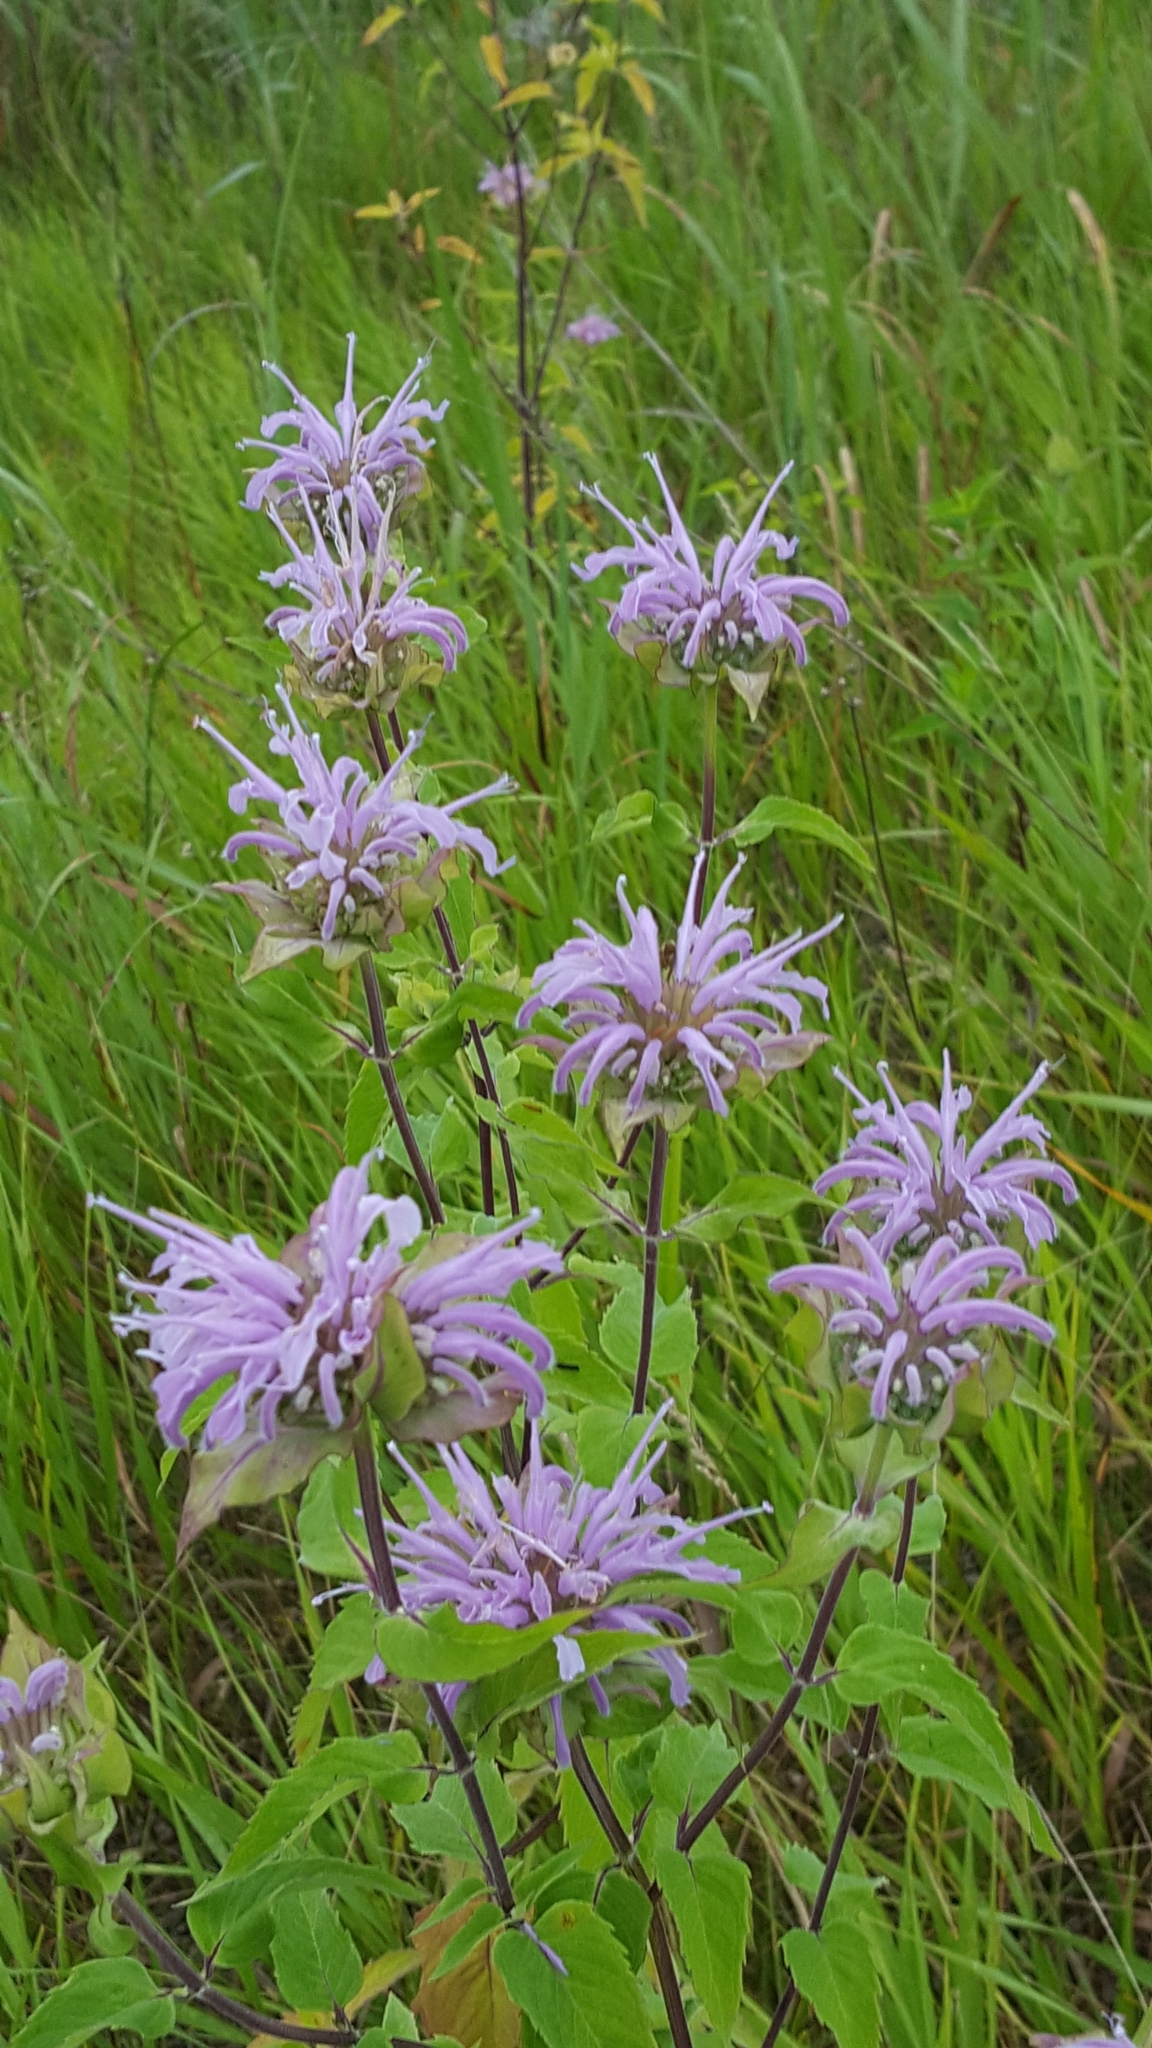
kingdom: Plantae
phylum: Tracheophyta
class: Magnoliopsida
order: Lamiales
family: Lamiaceae
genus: Monarda
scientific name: Monarda fistulosa
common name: Purple beebalm
